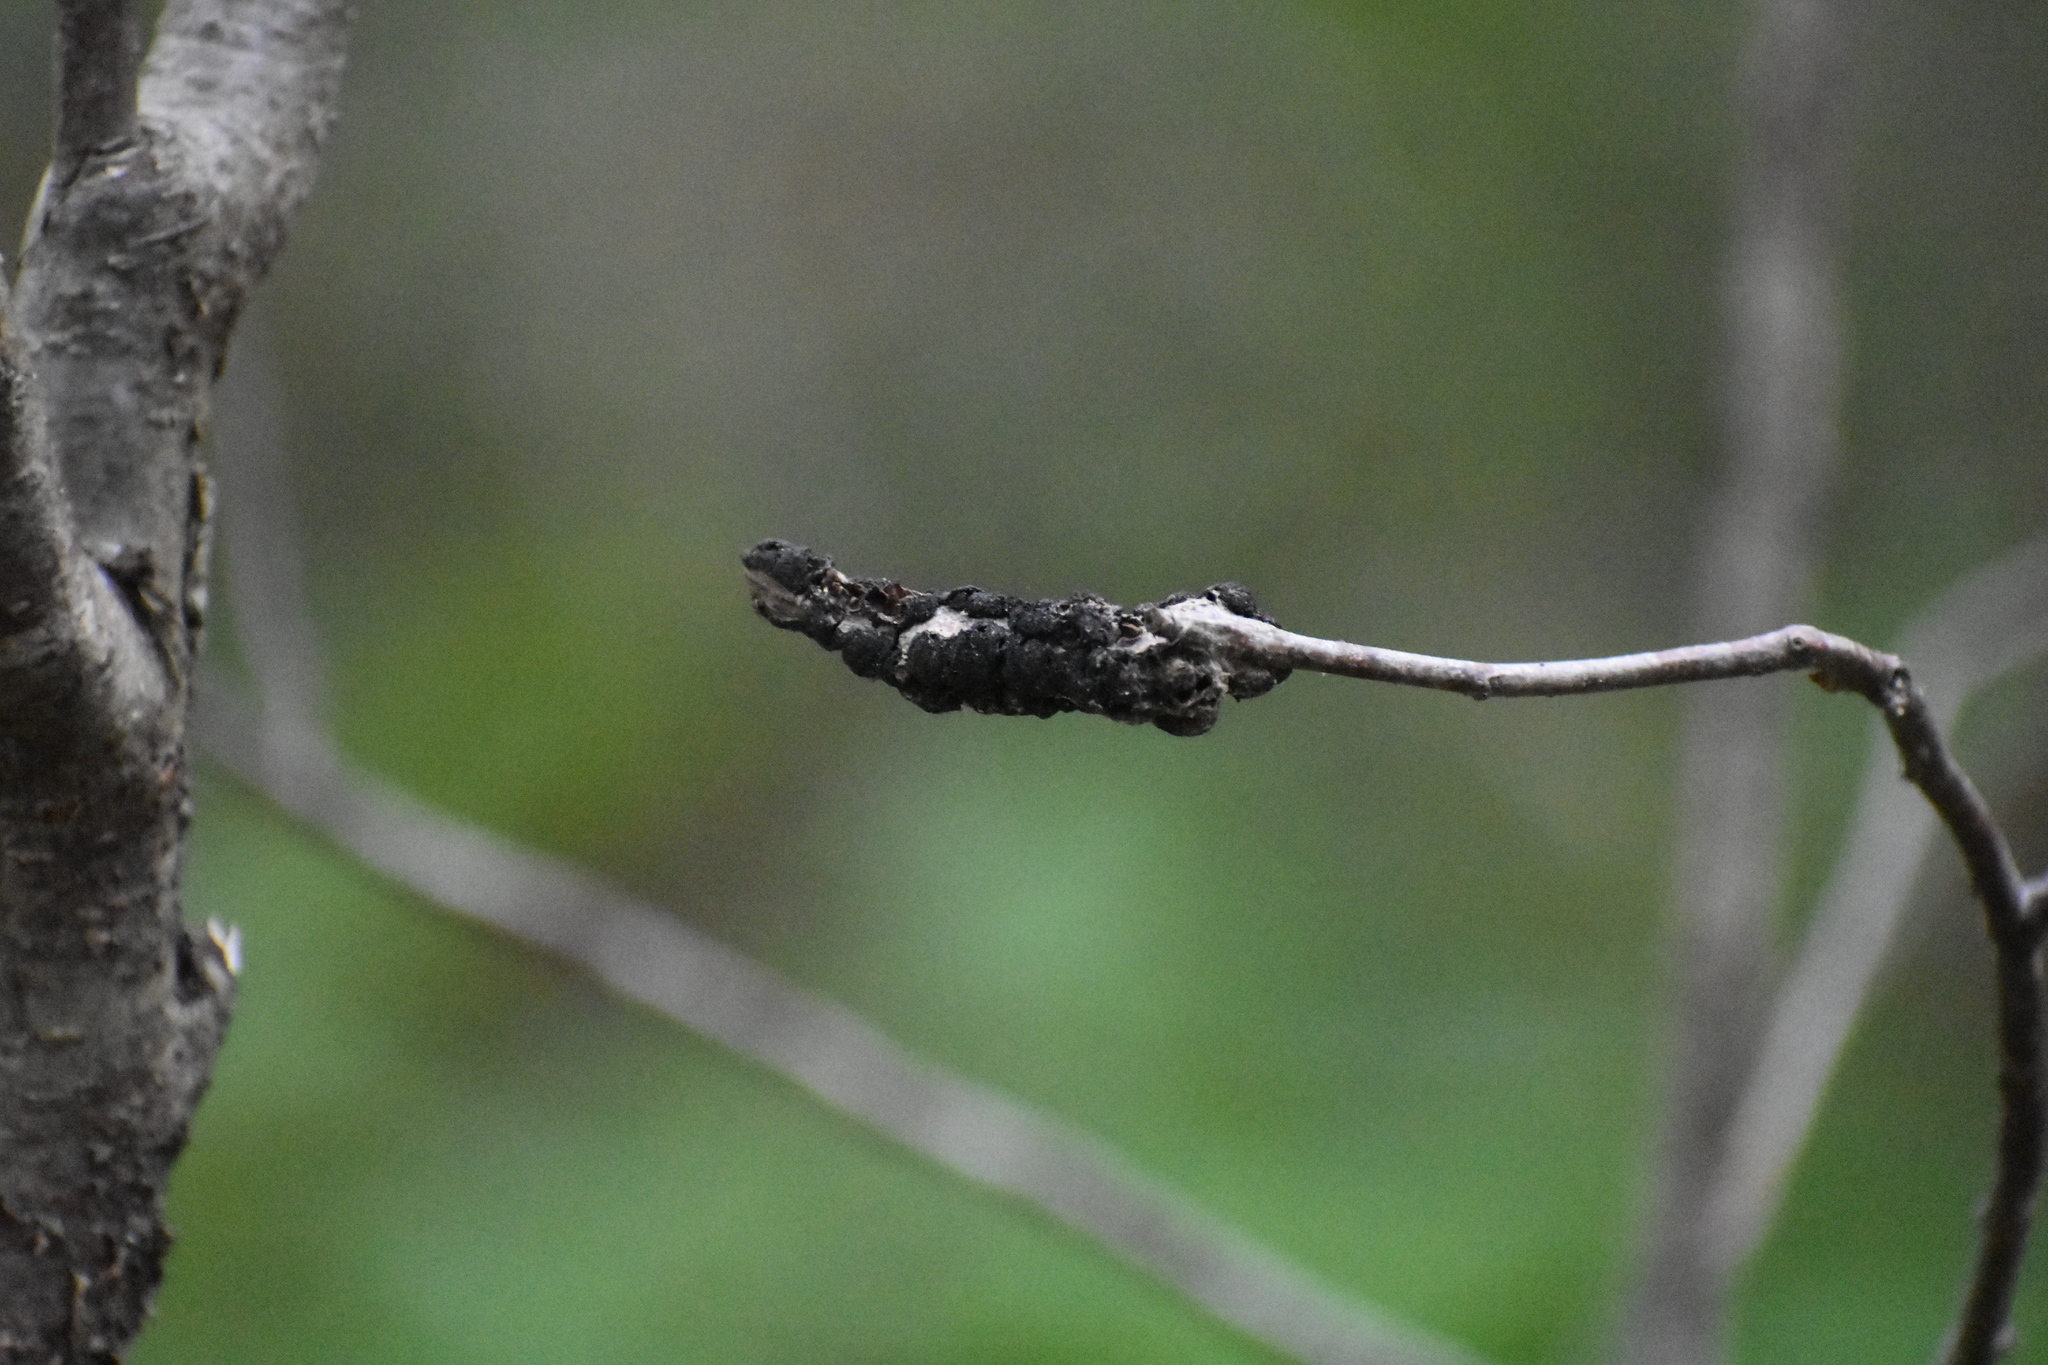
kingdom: Fungi
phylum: Ascomycota
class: Dothideomycetes
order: Venturiales
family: Venturiaceae
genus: Apiosporina
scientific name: Apiosporina morbosa
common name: Black knot
